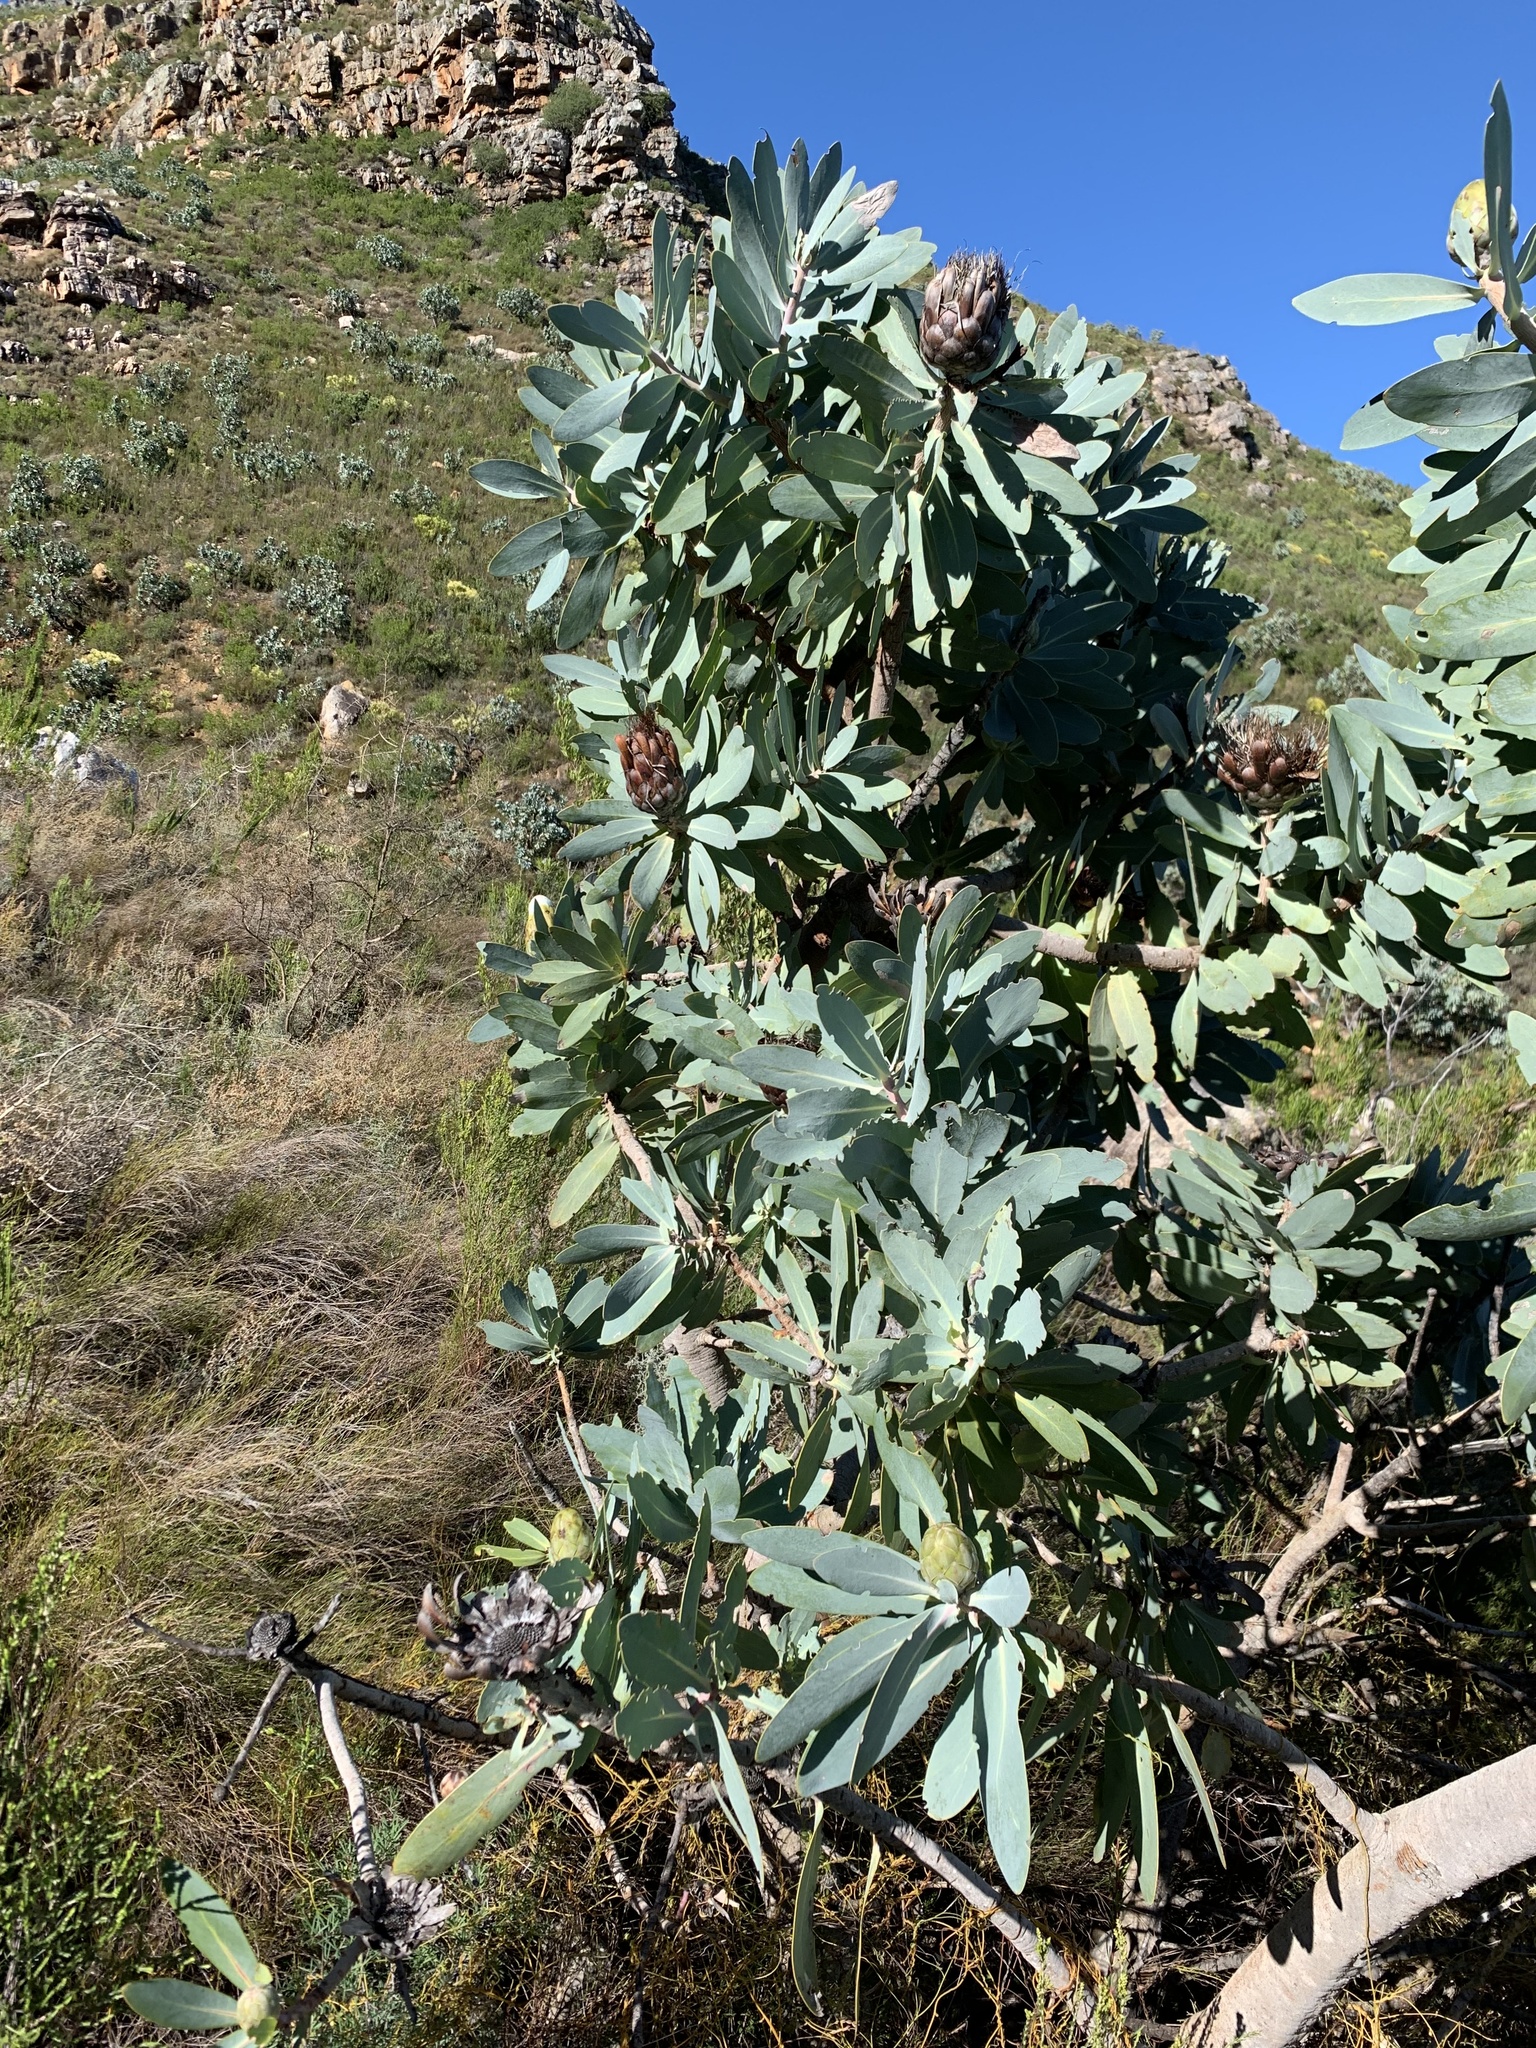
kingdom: Plantae
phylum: Tracheophyta
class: Magnoliopsida
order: Proteales
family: Proteaceae
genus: Protea
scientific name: Protea nitida
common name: Tree protea
